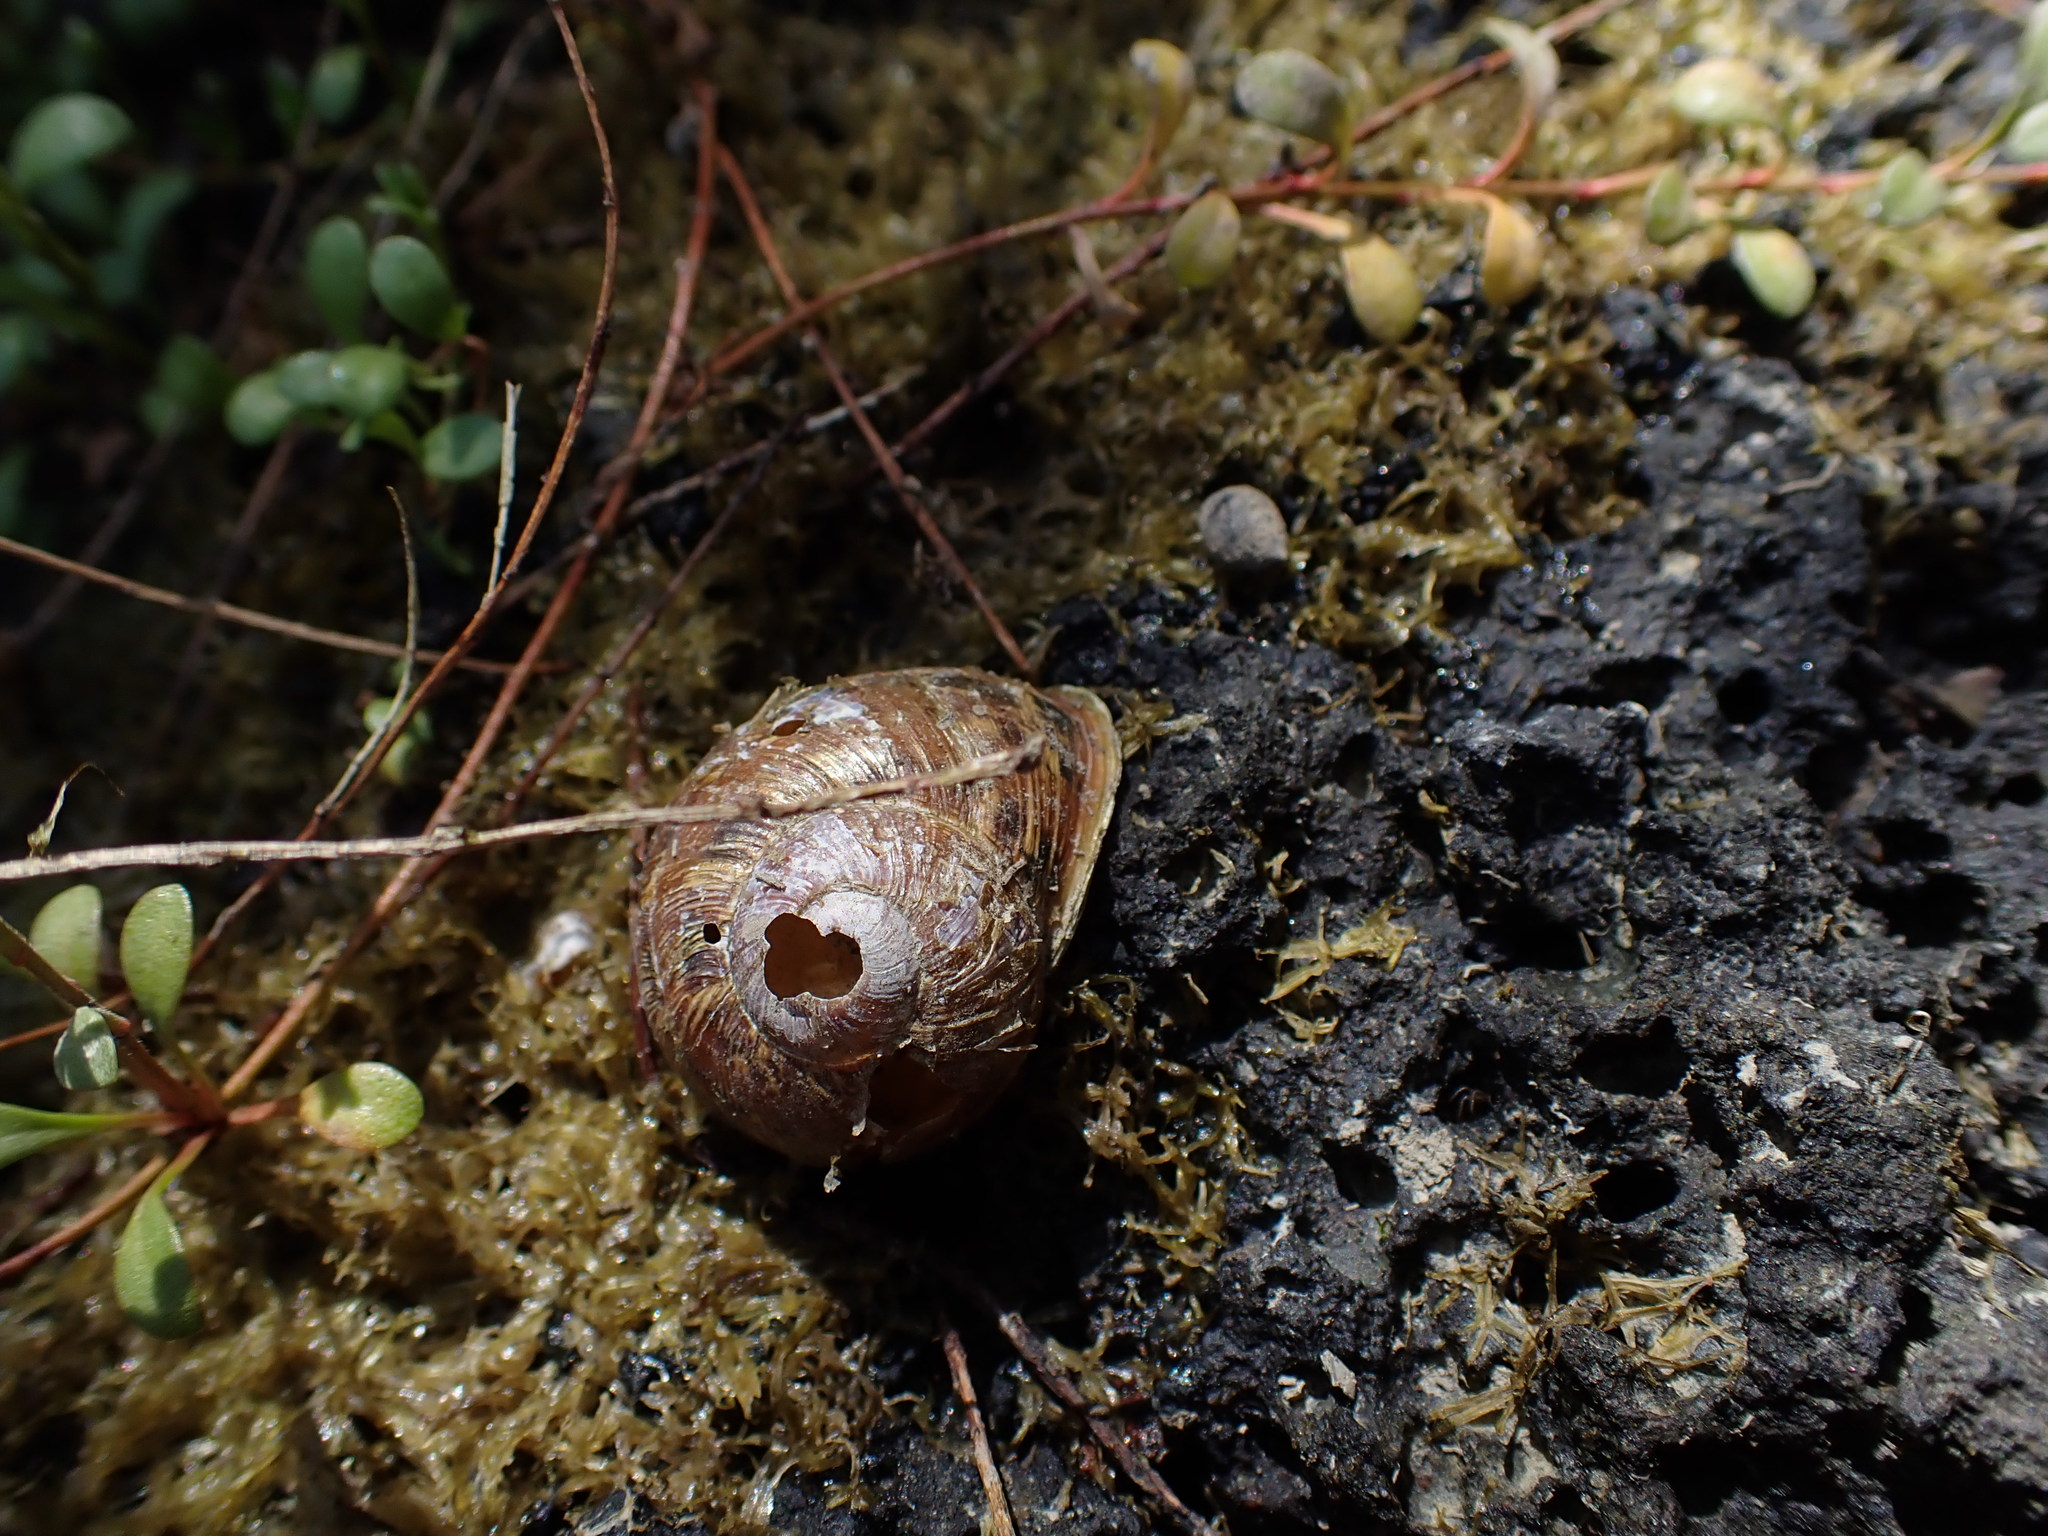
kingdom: Animalia
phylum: Mollusca
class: Gastropoda
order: Stylommatophora
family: Helicidae
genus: Cornu
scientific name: Cornu aspersum
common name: Brown garden snail
